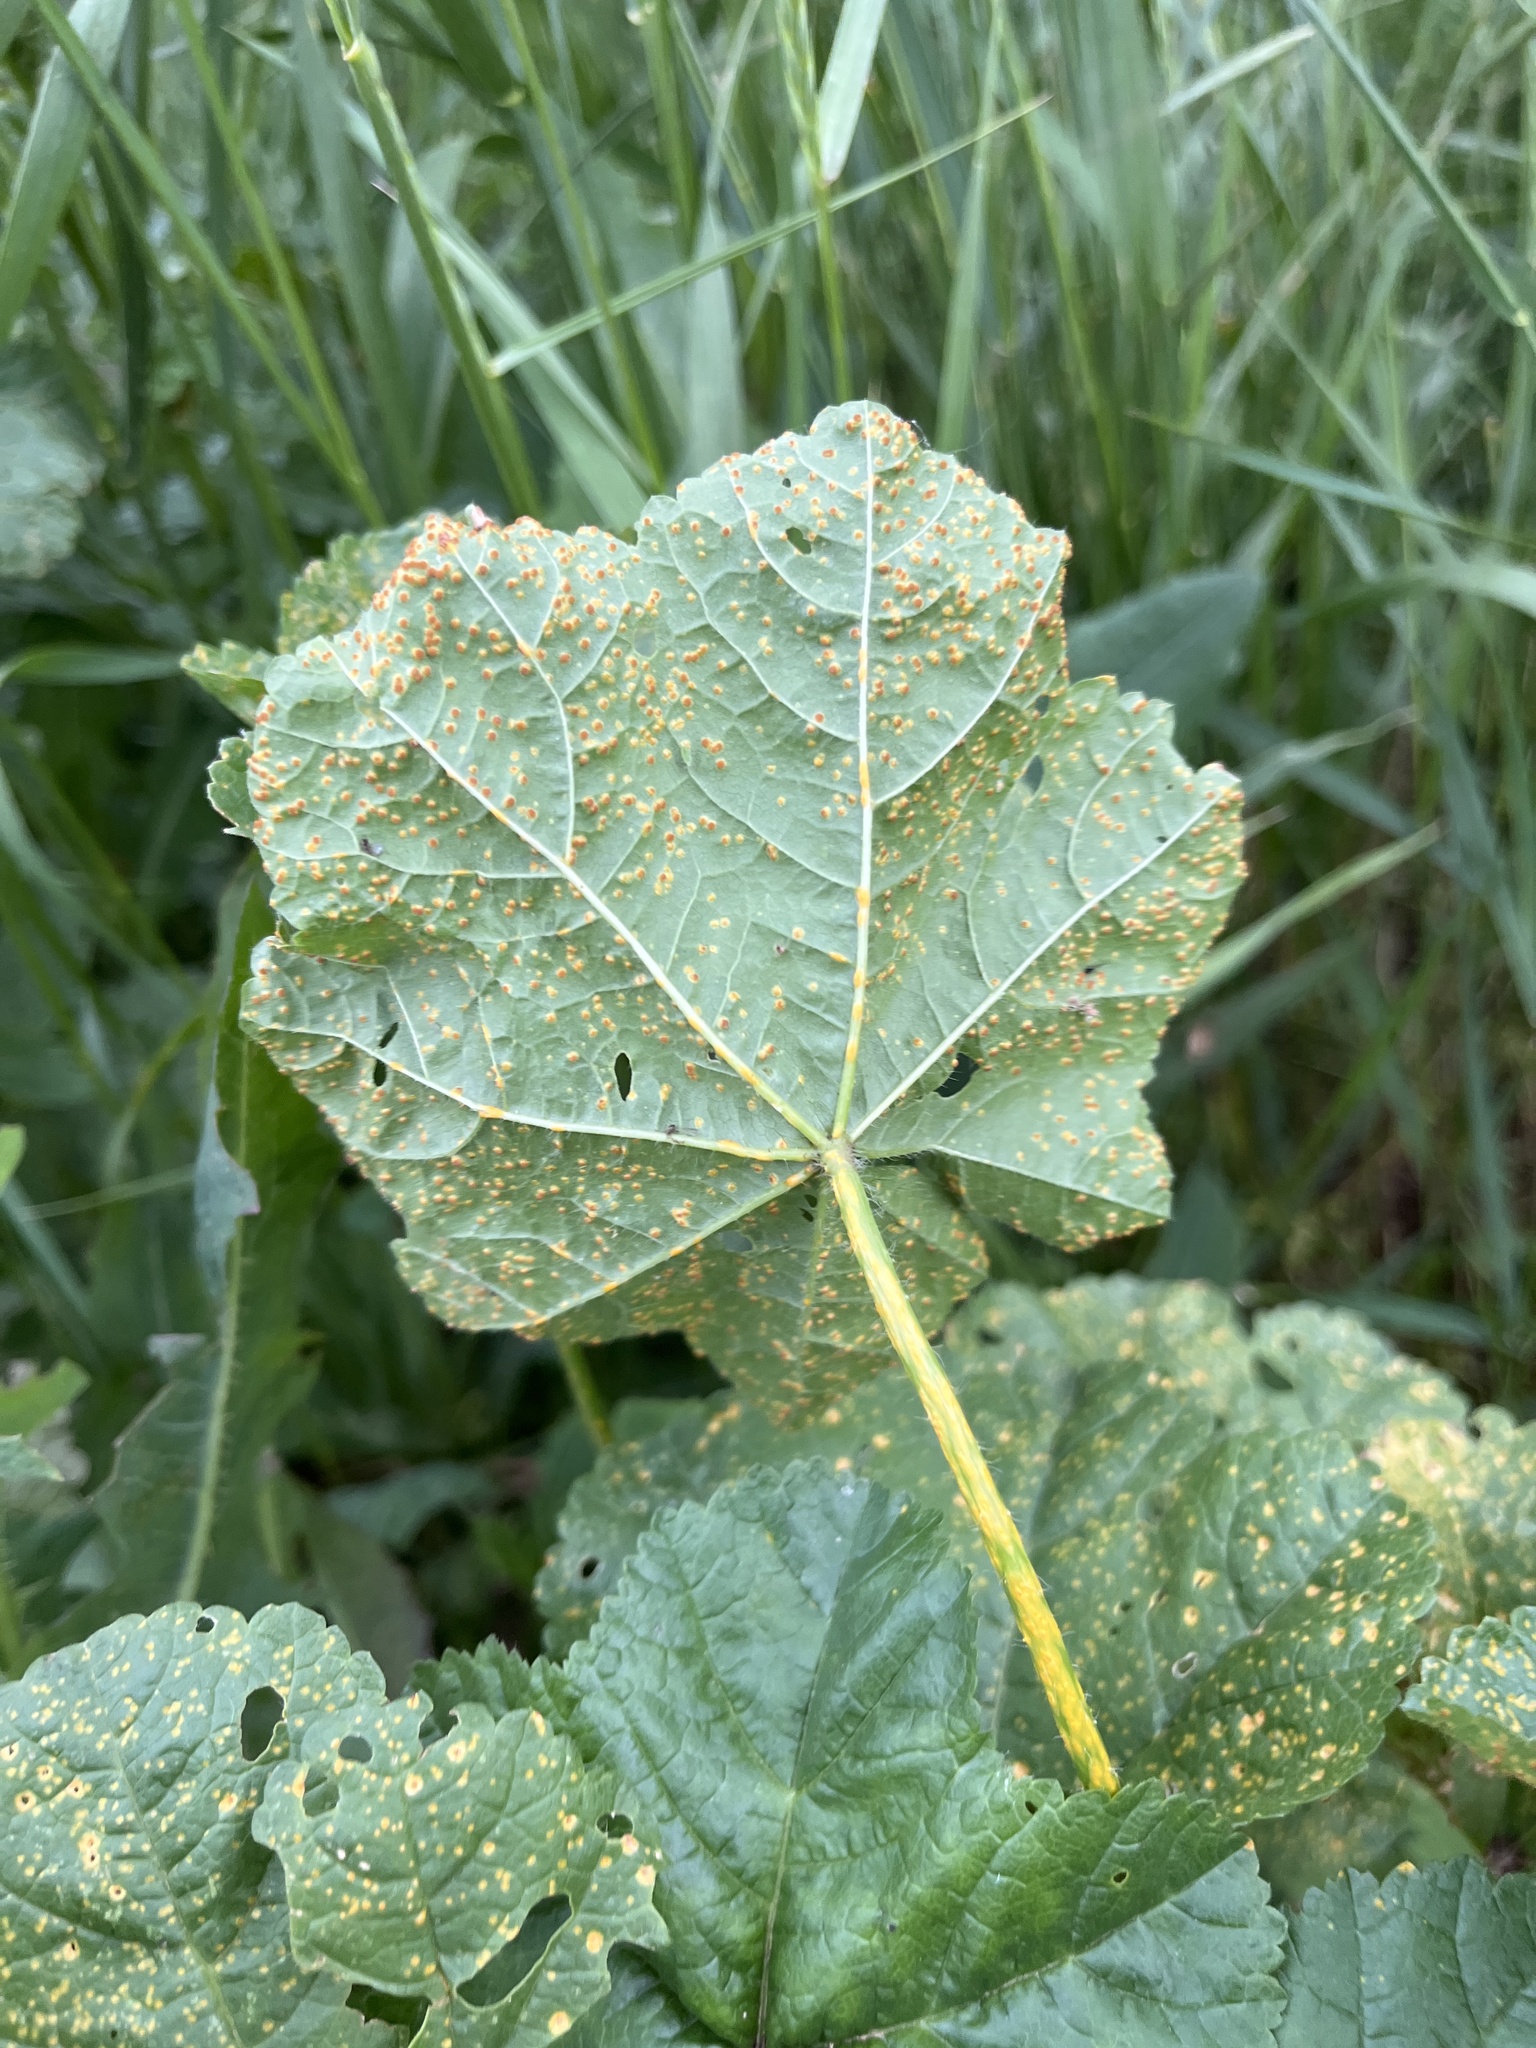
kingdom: Fungi
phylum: Basidiomycota
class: Pucciniomycetes
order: Pucciniales
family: Pucciniaceae
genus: Puccinia
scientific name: Puccinia malvacearum
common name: Hollyhock rust
